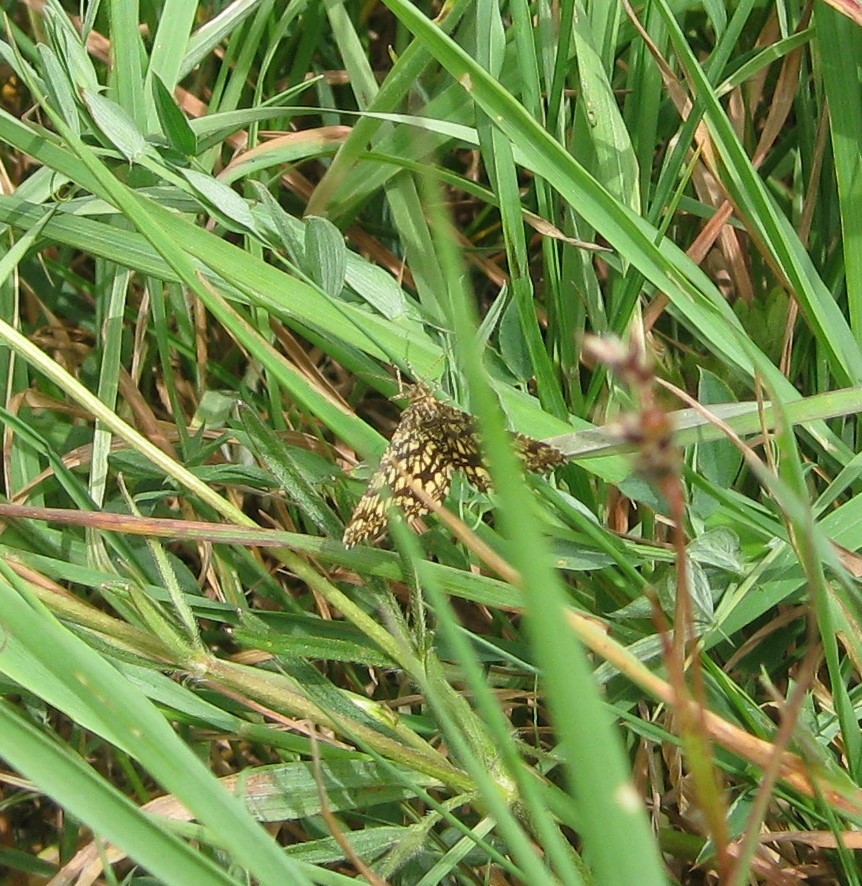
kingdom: Animalia
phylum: Arthropoda
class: Insecta
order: Lepidoptera
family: Geometridae
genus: Chiasmia
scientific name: Chiasmia clathrata
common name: Latticed heath
